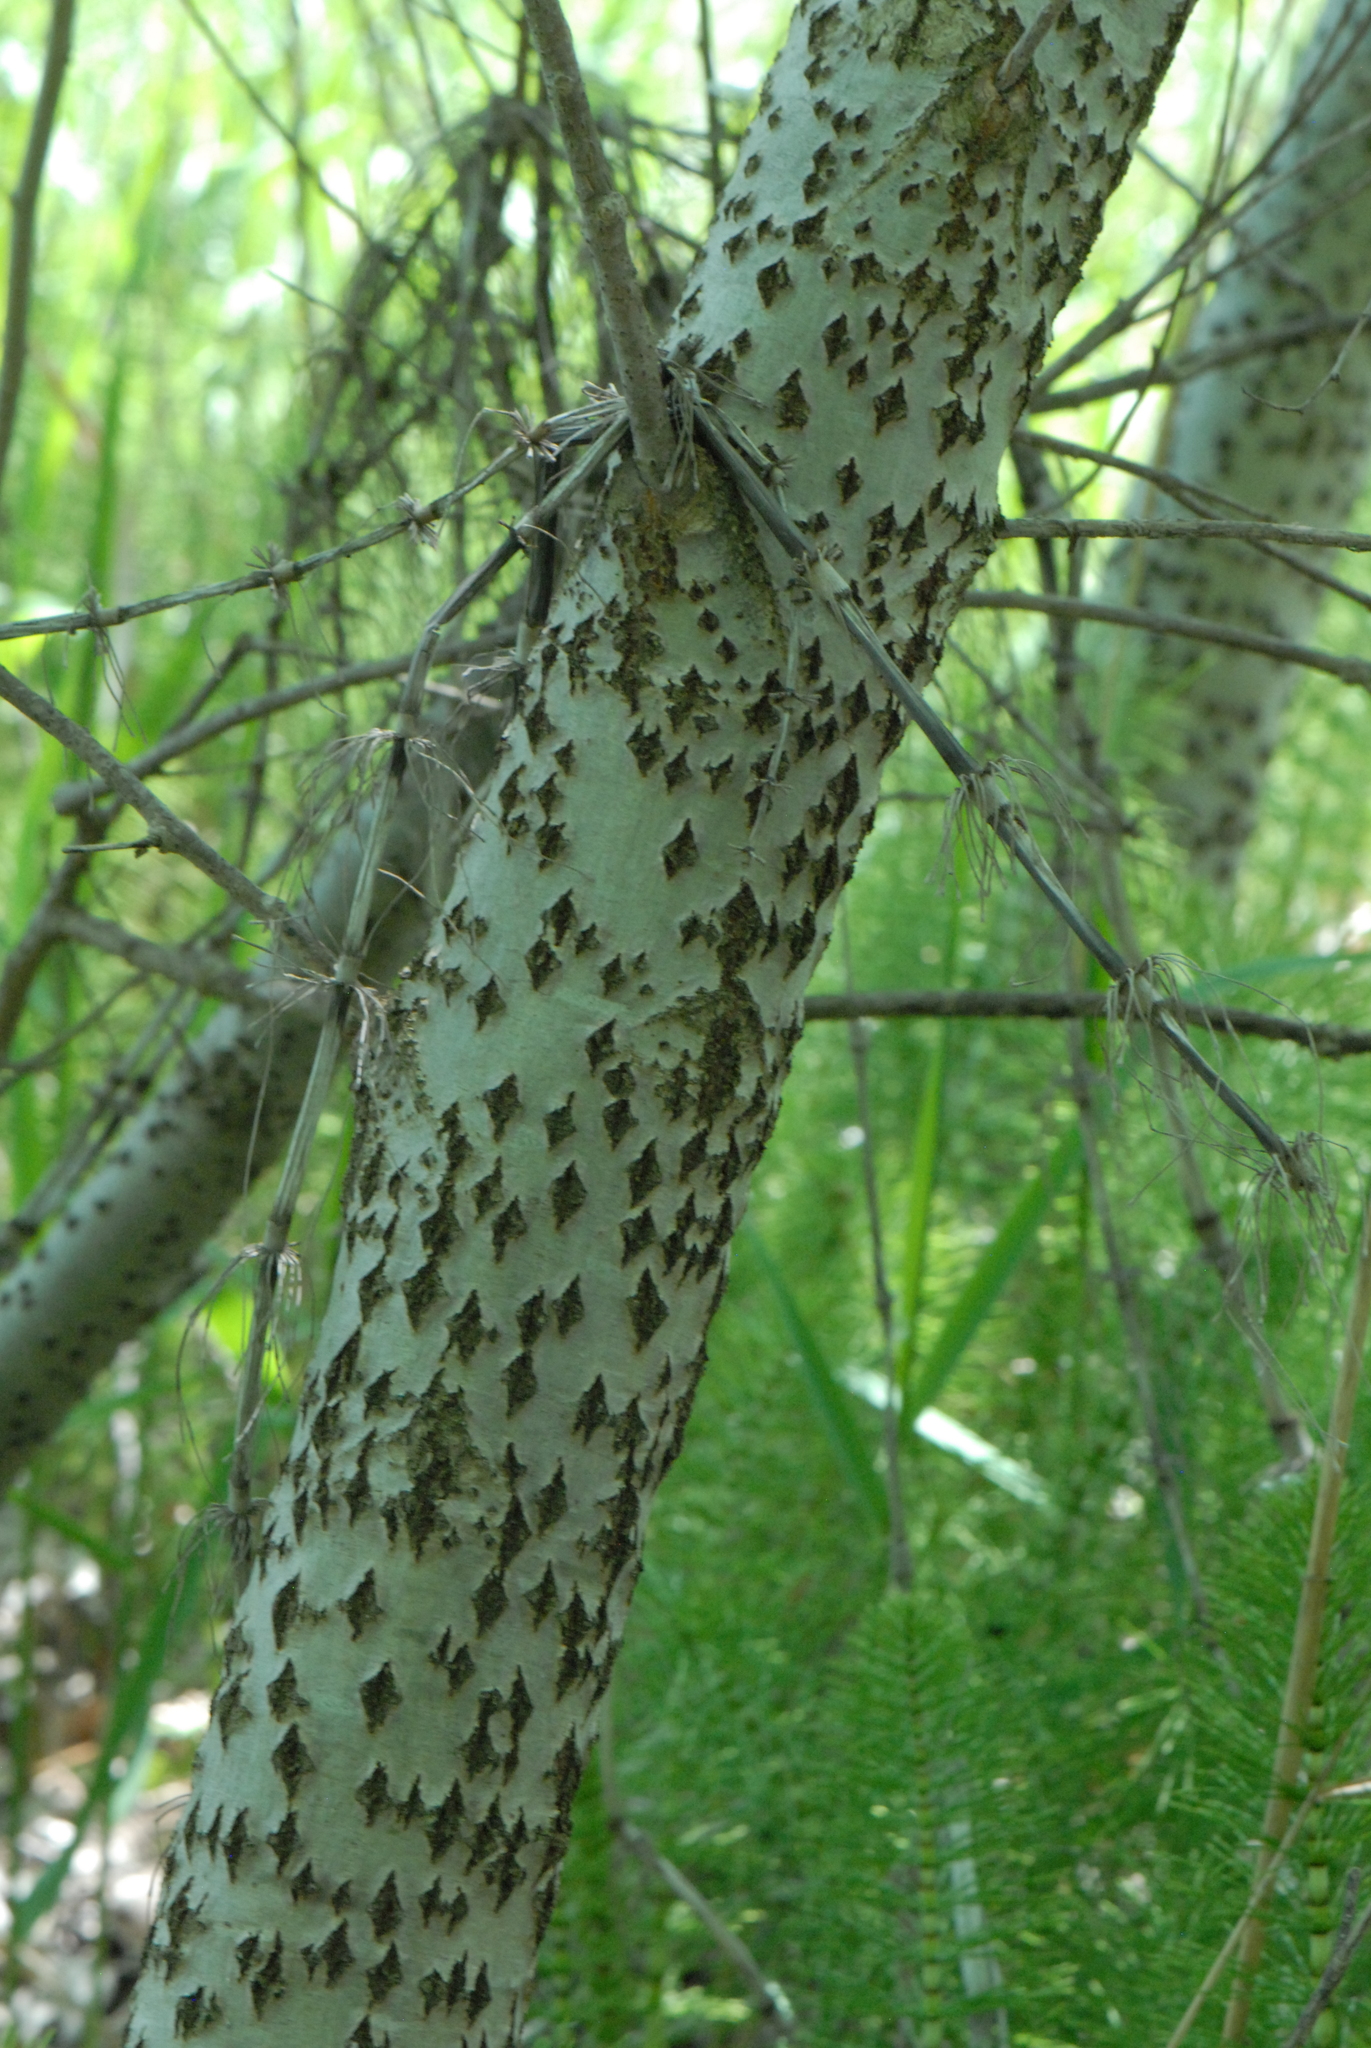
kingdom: Plantae
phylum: Tracheophyta
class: Magnoliopsida
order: Malpighiales
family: Salicaceae
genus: Populus
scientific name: Populus alba
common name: White poplar
